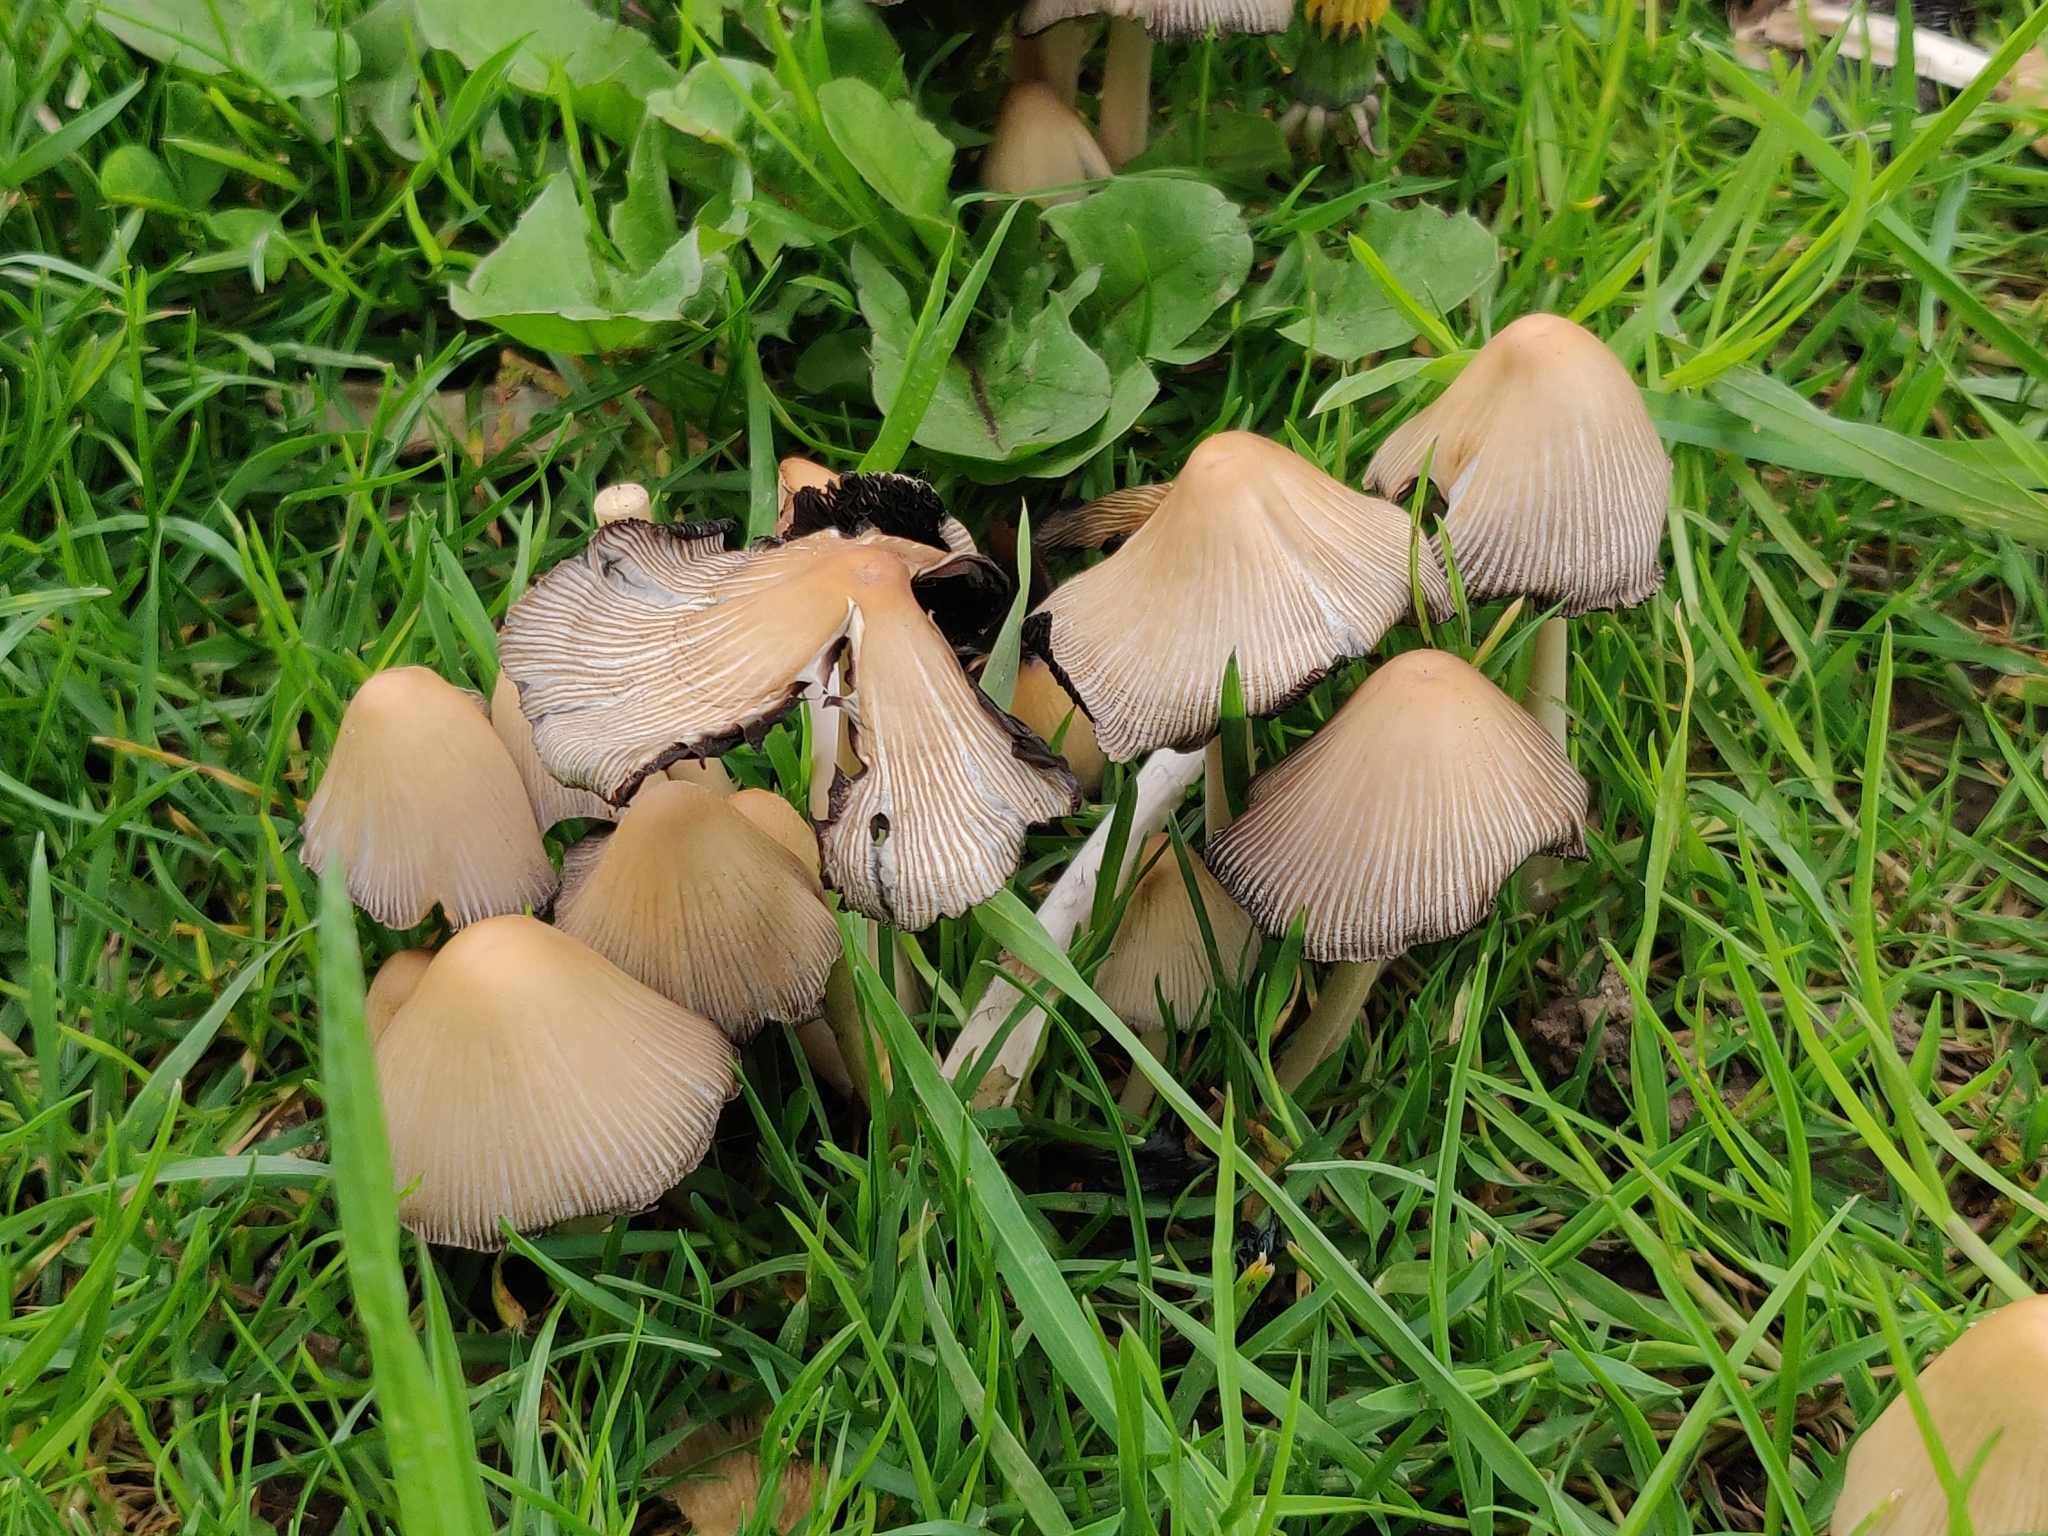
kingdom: Fungi
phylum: Basidiomycota
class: Agaricomycetes
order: Agaricales
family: Psathyrellaceae
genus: Coprinopsis
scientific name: Coprinopsis atramentaria
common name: Common ink-cap
